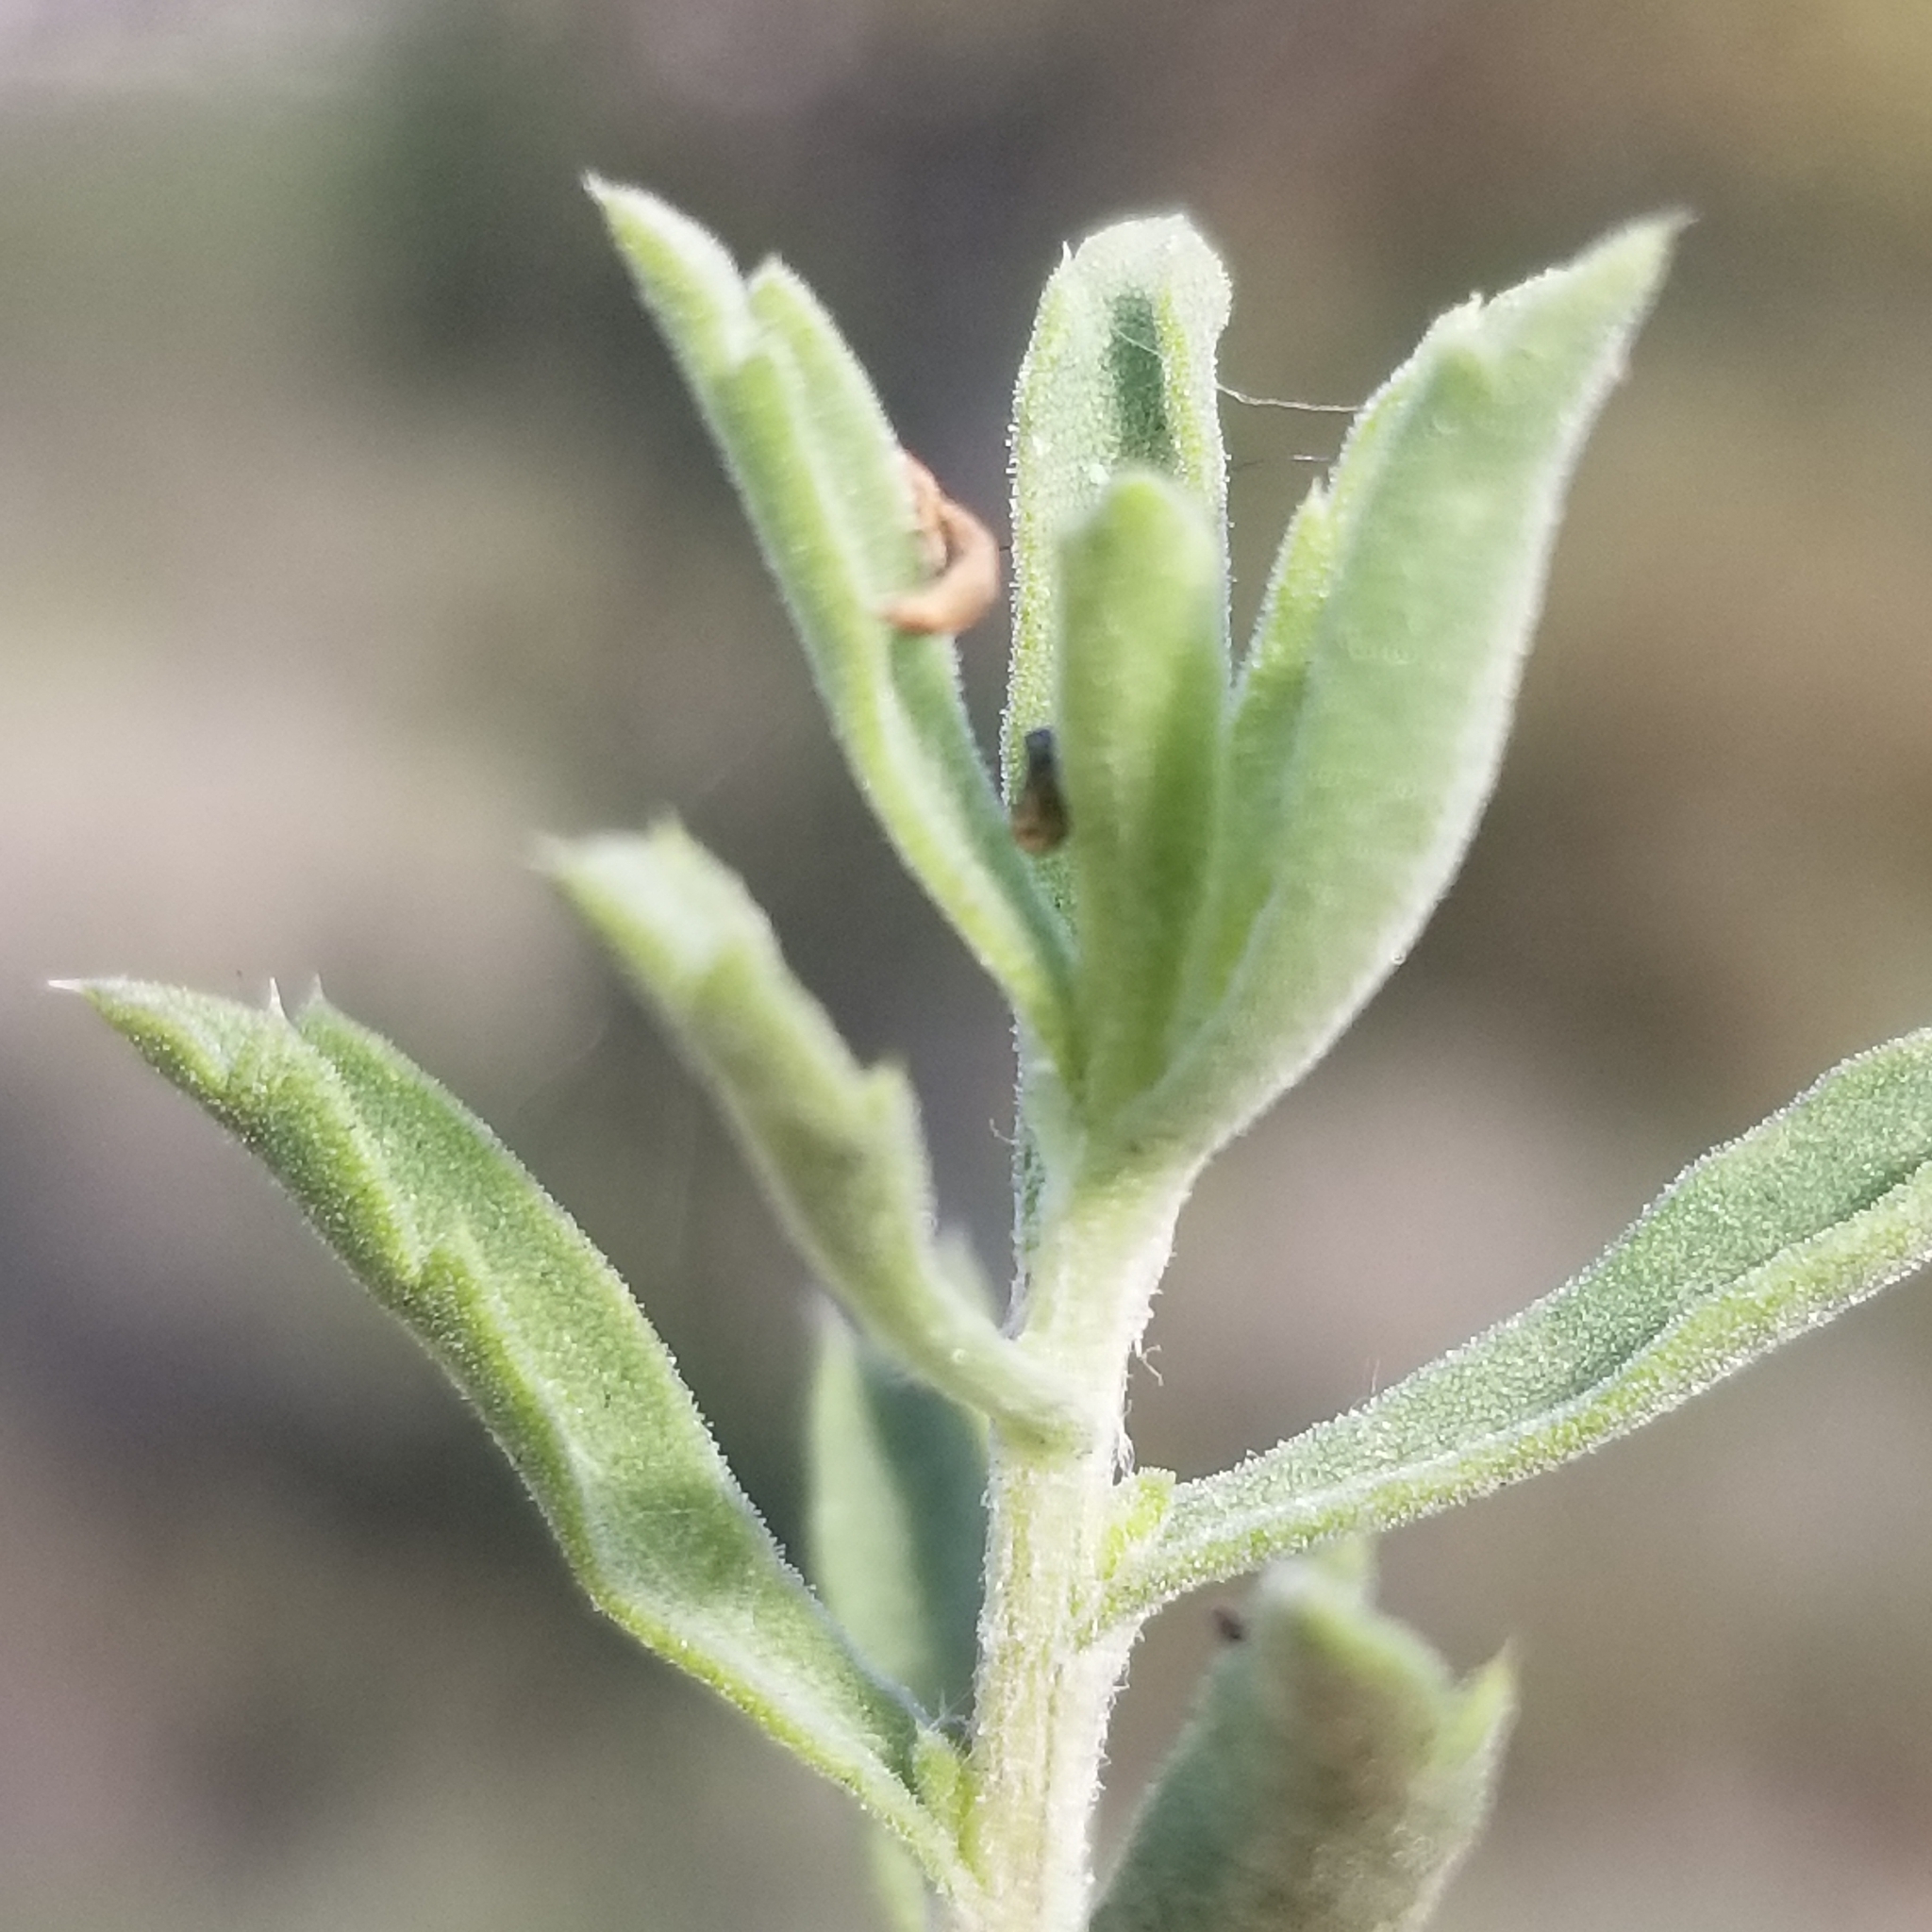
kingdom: Plantae
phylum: Tracheophyta
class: Magnoliopsida
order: Asterales
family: Asteraceae
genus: Isocoma
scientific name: Isocoma menziesii
